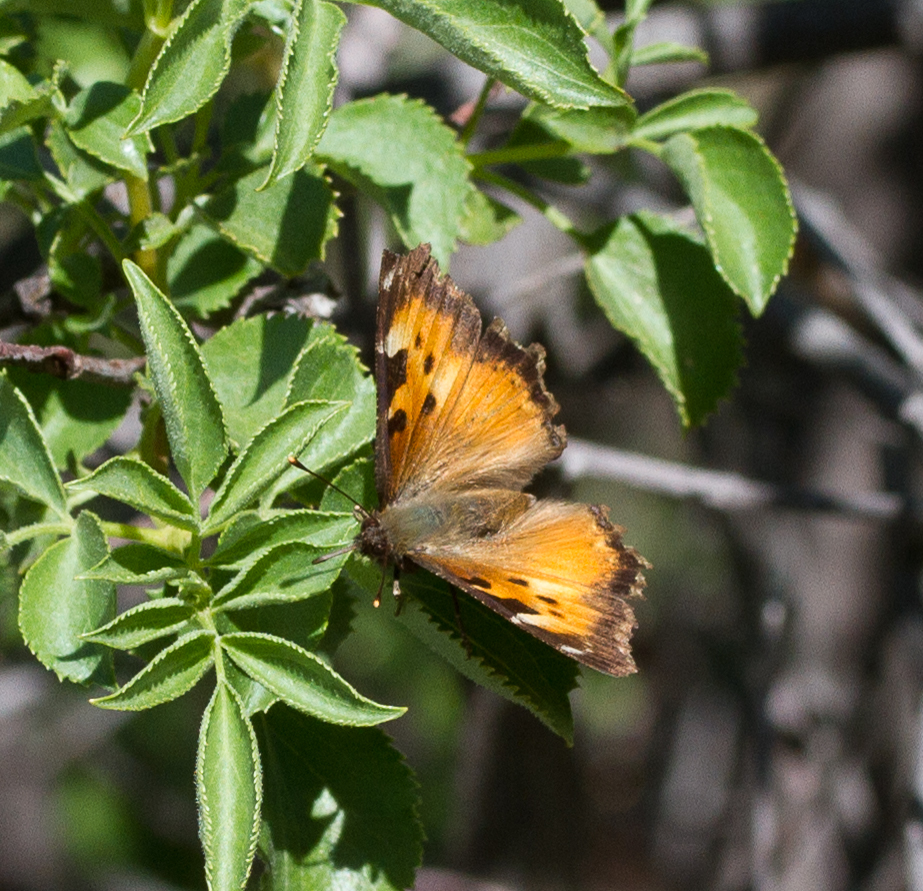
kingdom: Animalia
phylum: Arthropoda
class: Insecta
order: Lepidoptera
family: Nymphalidae
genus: Nymphalis
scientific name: Nymphalis californica
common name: California tortoiseshell
